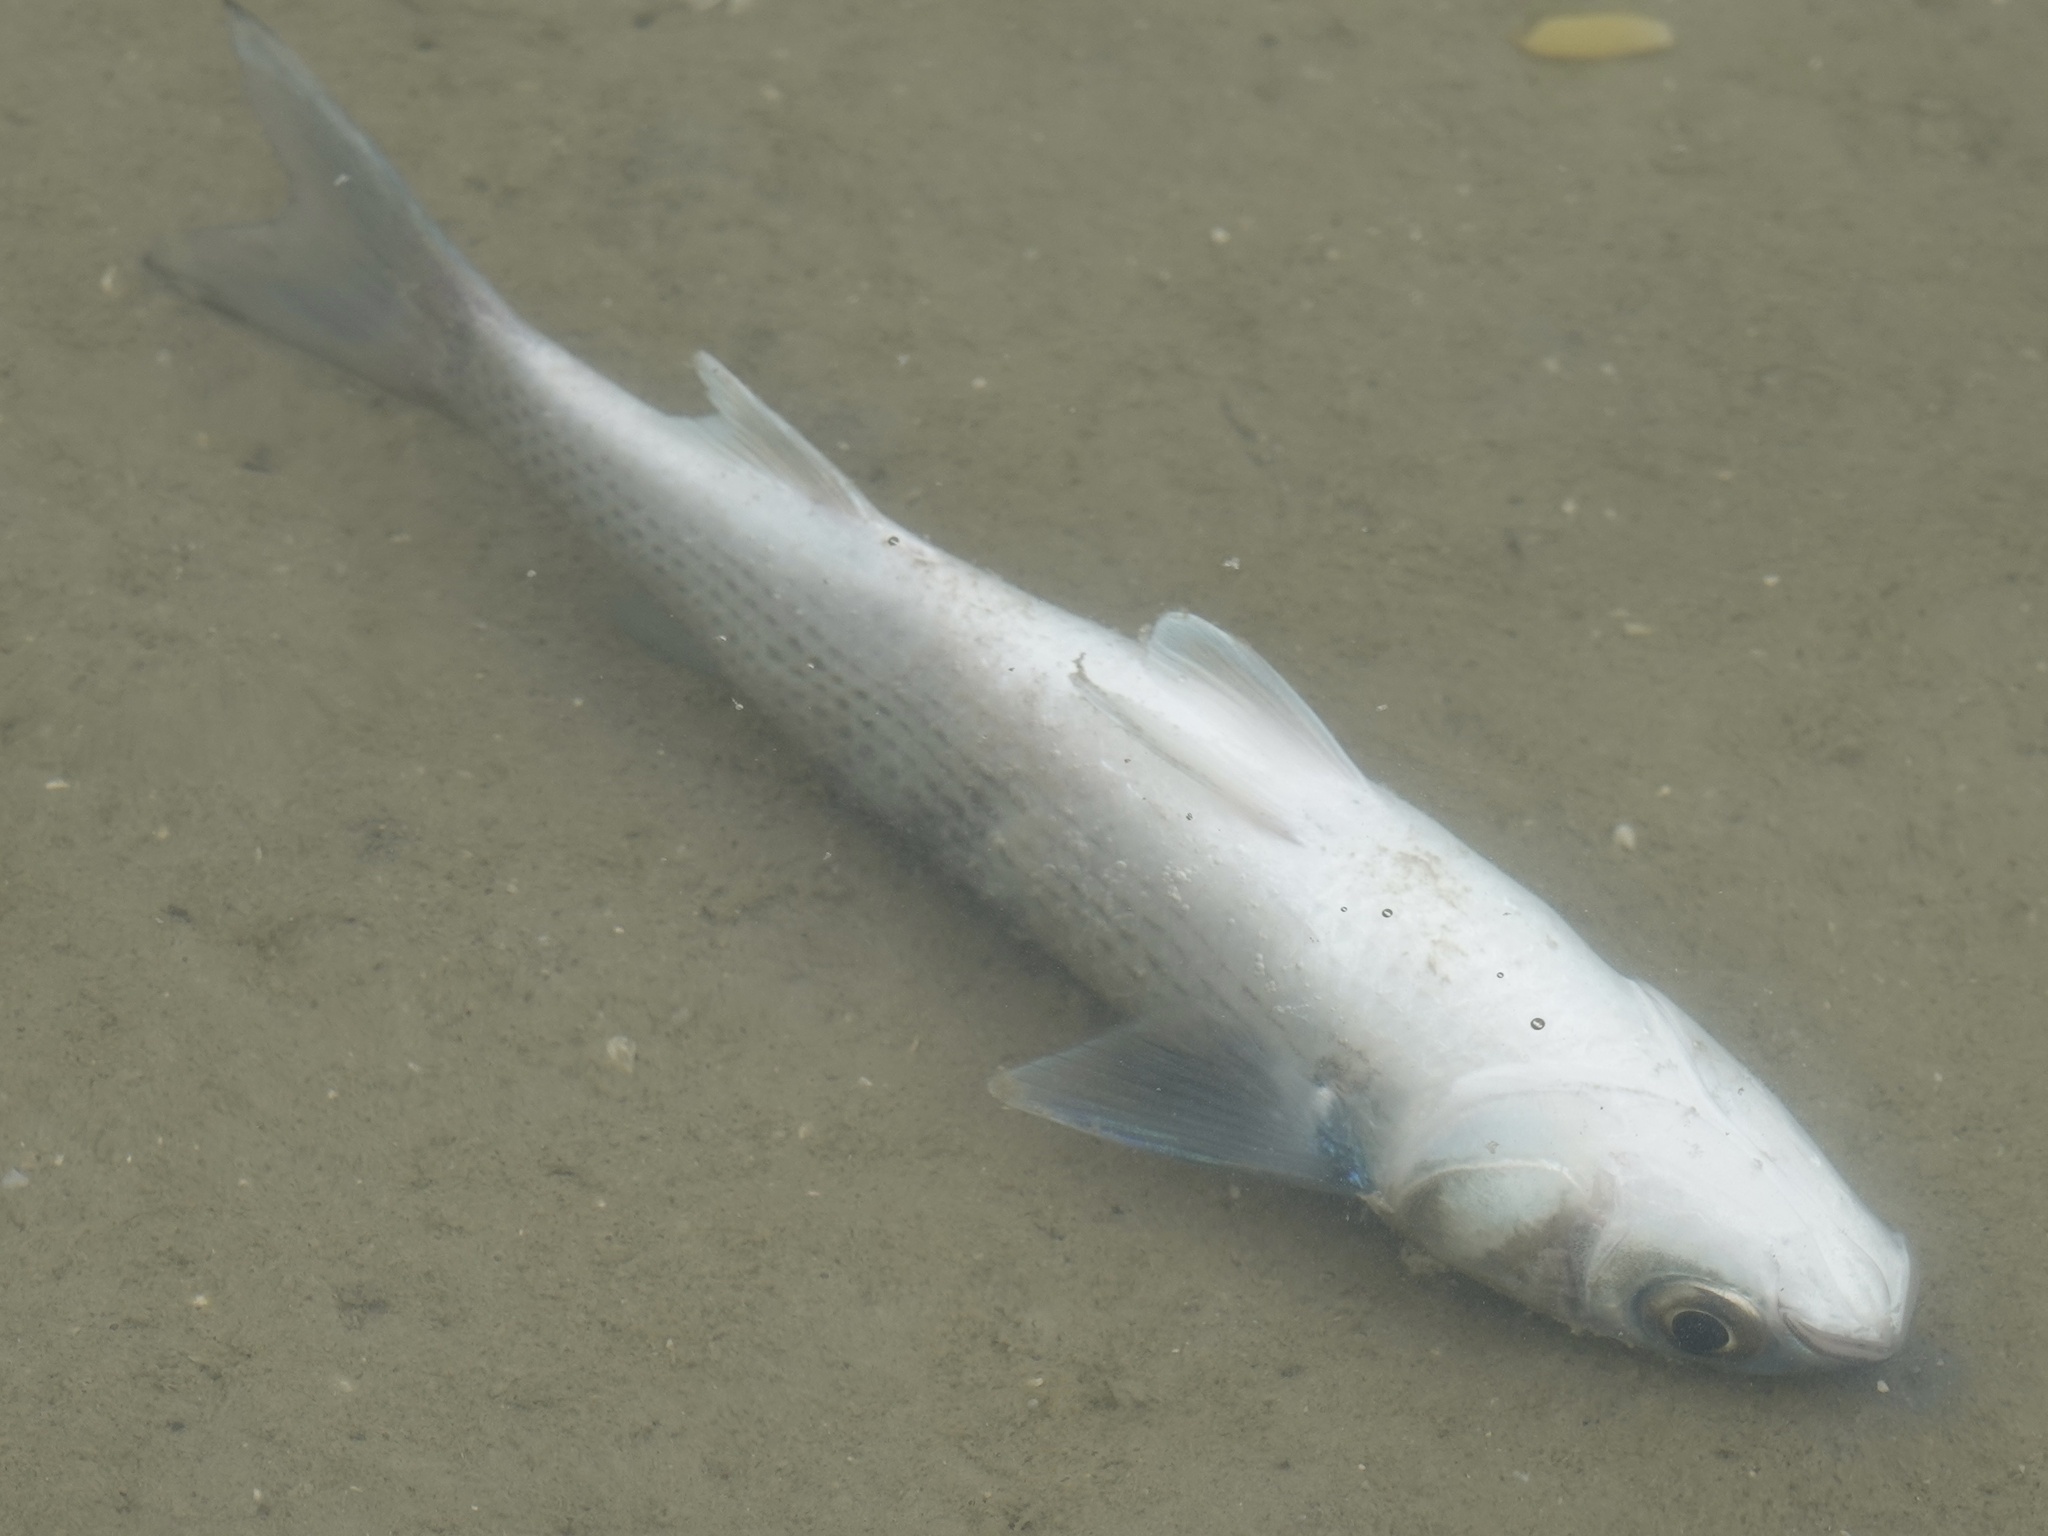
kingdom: Animalia
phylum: Chordata
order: Mugiliformes
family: Mugilidae
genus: Mugil
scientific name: Mugil cephalus
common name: Grey mullet
